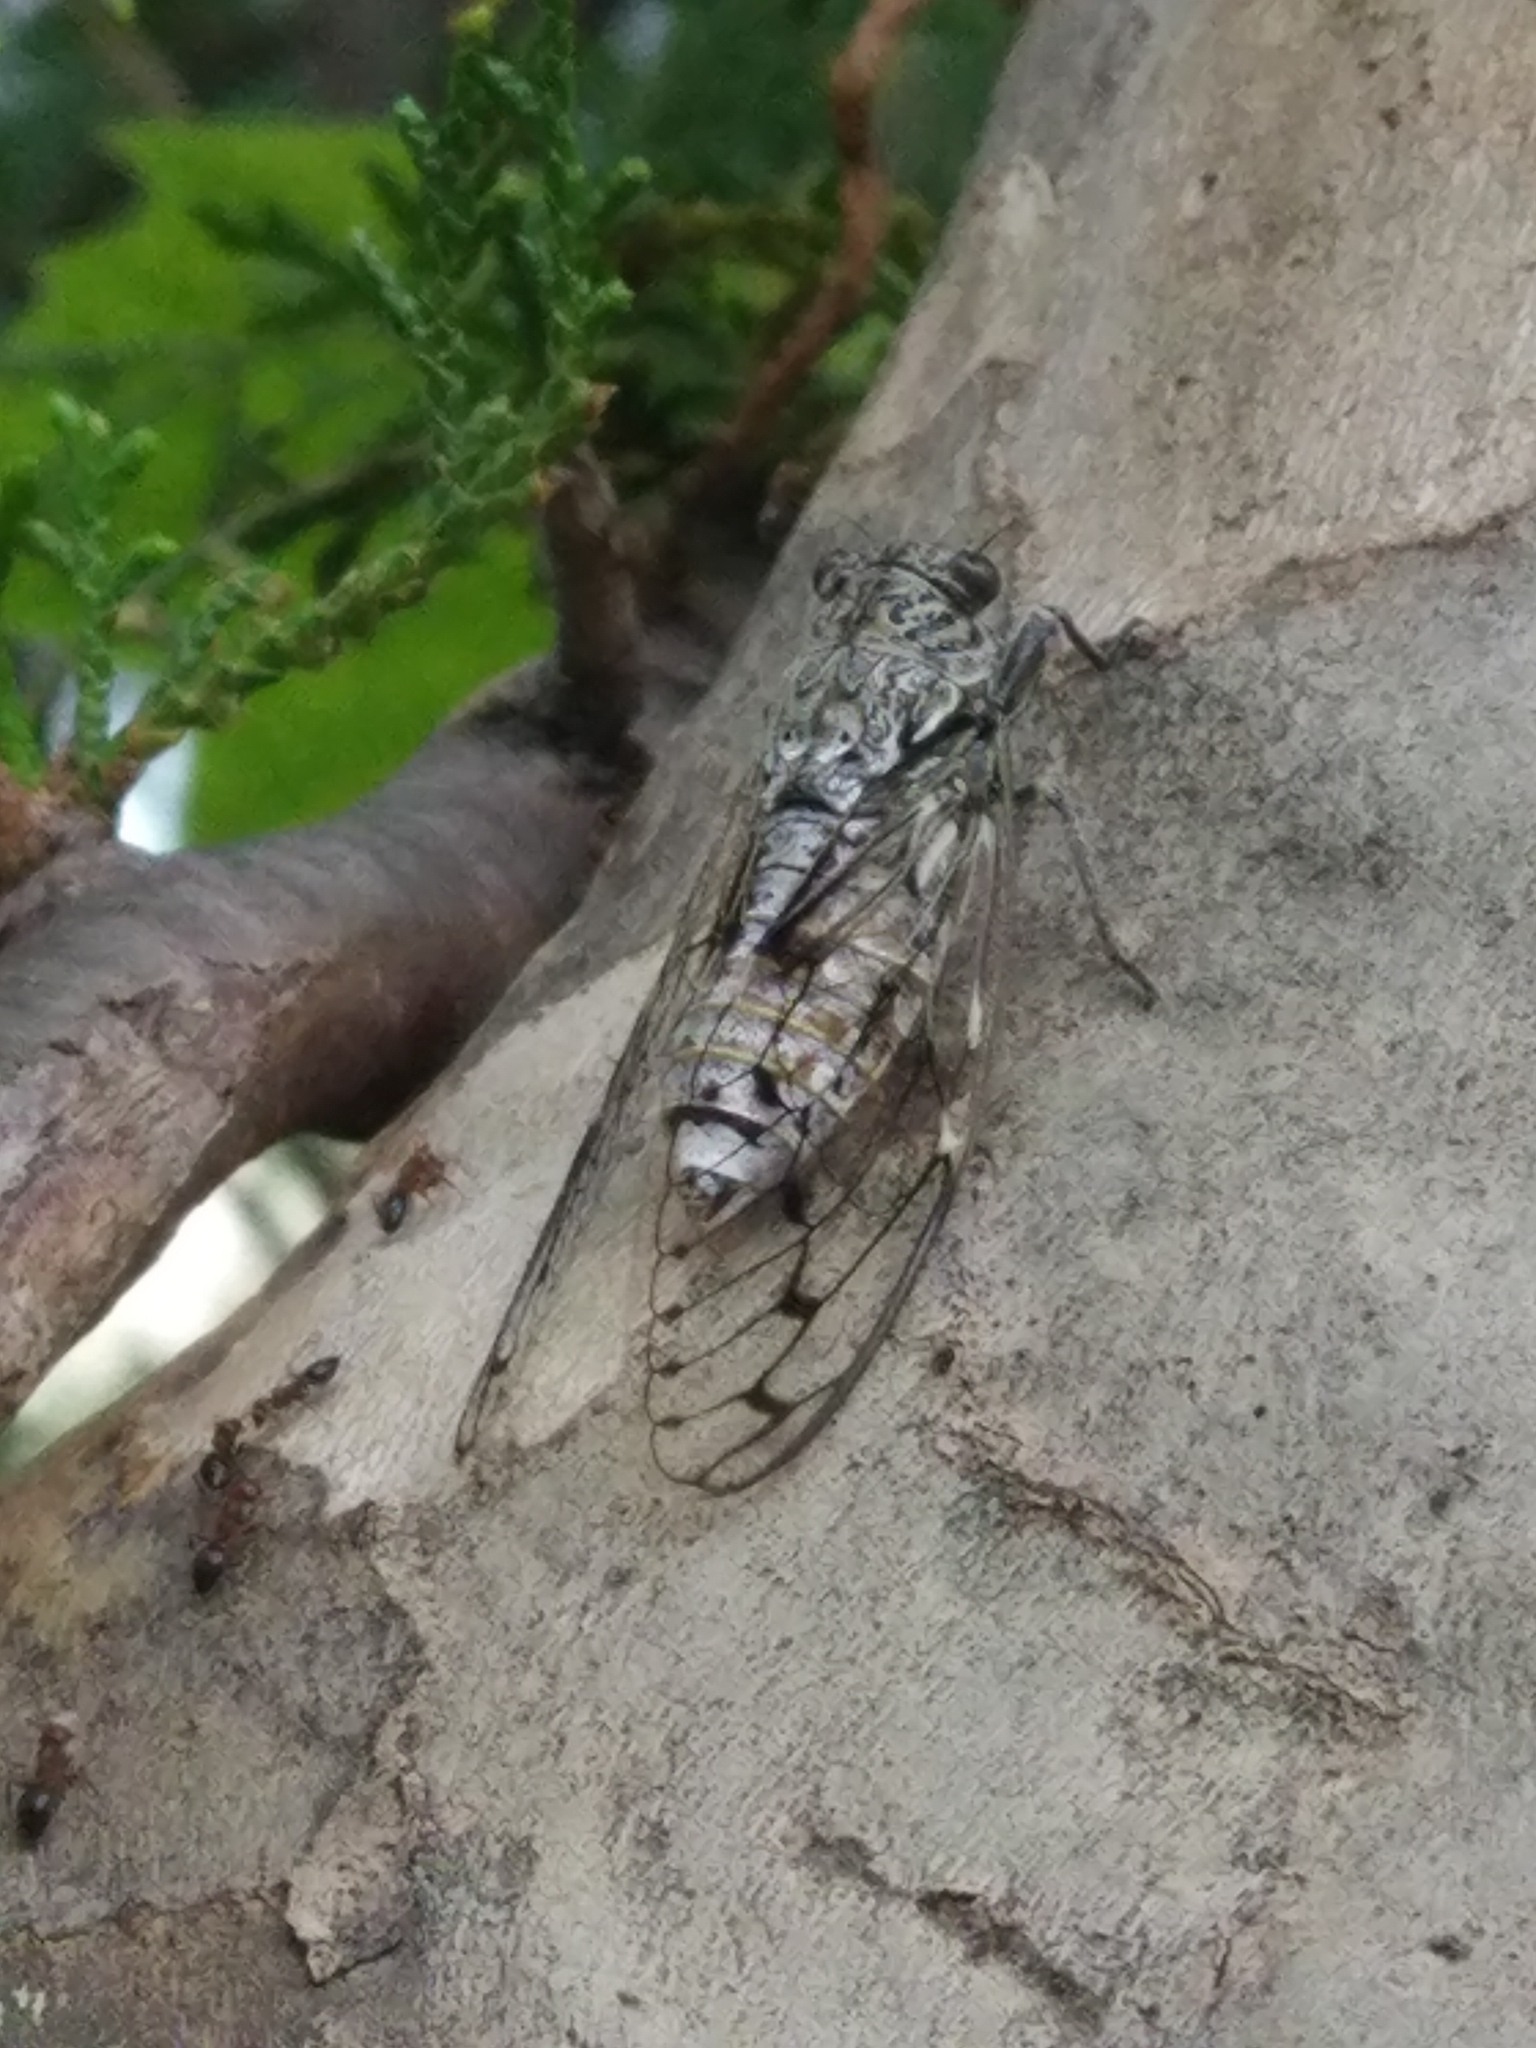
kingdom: Animalia
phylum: Arthropoda
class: Insecta
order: Hemiptera
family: Cicadidae
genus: Cicada
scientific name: Cicada orni
